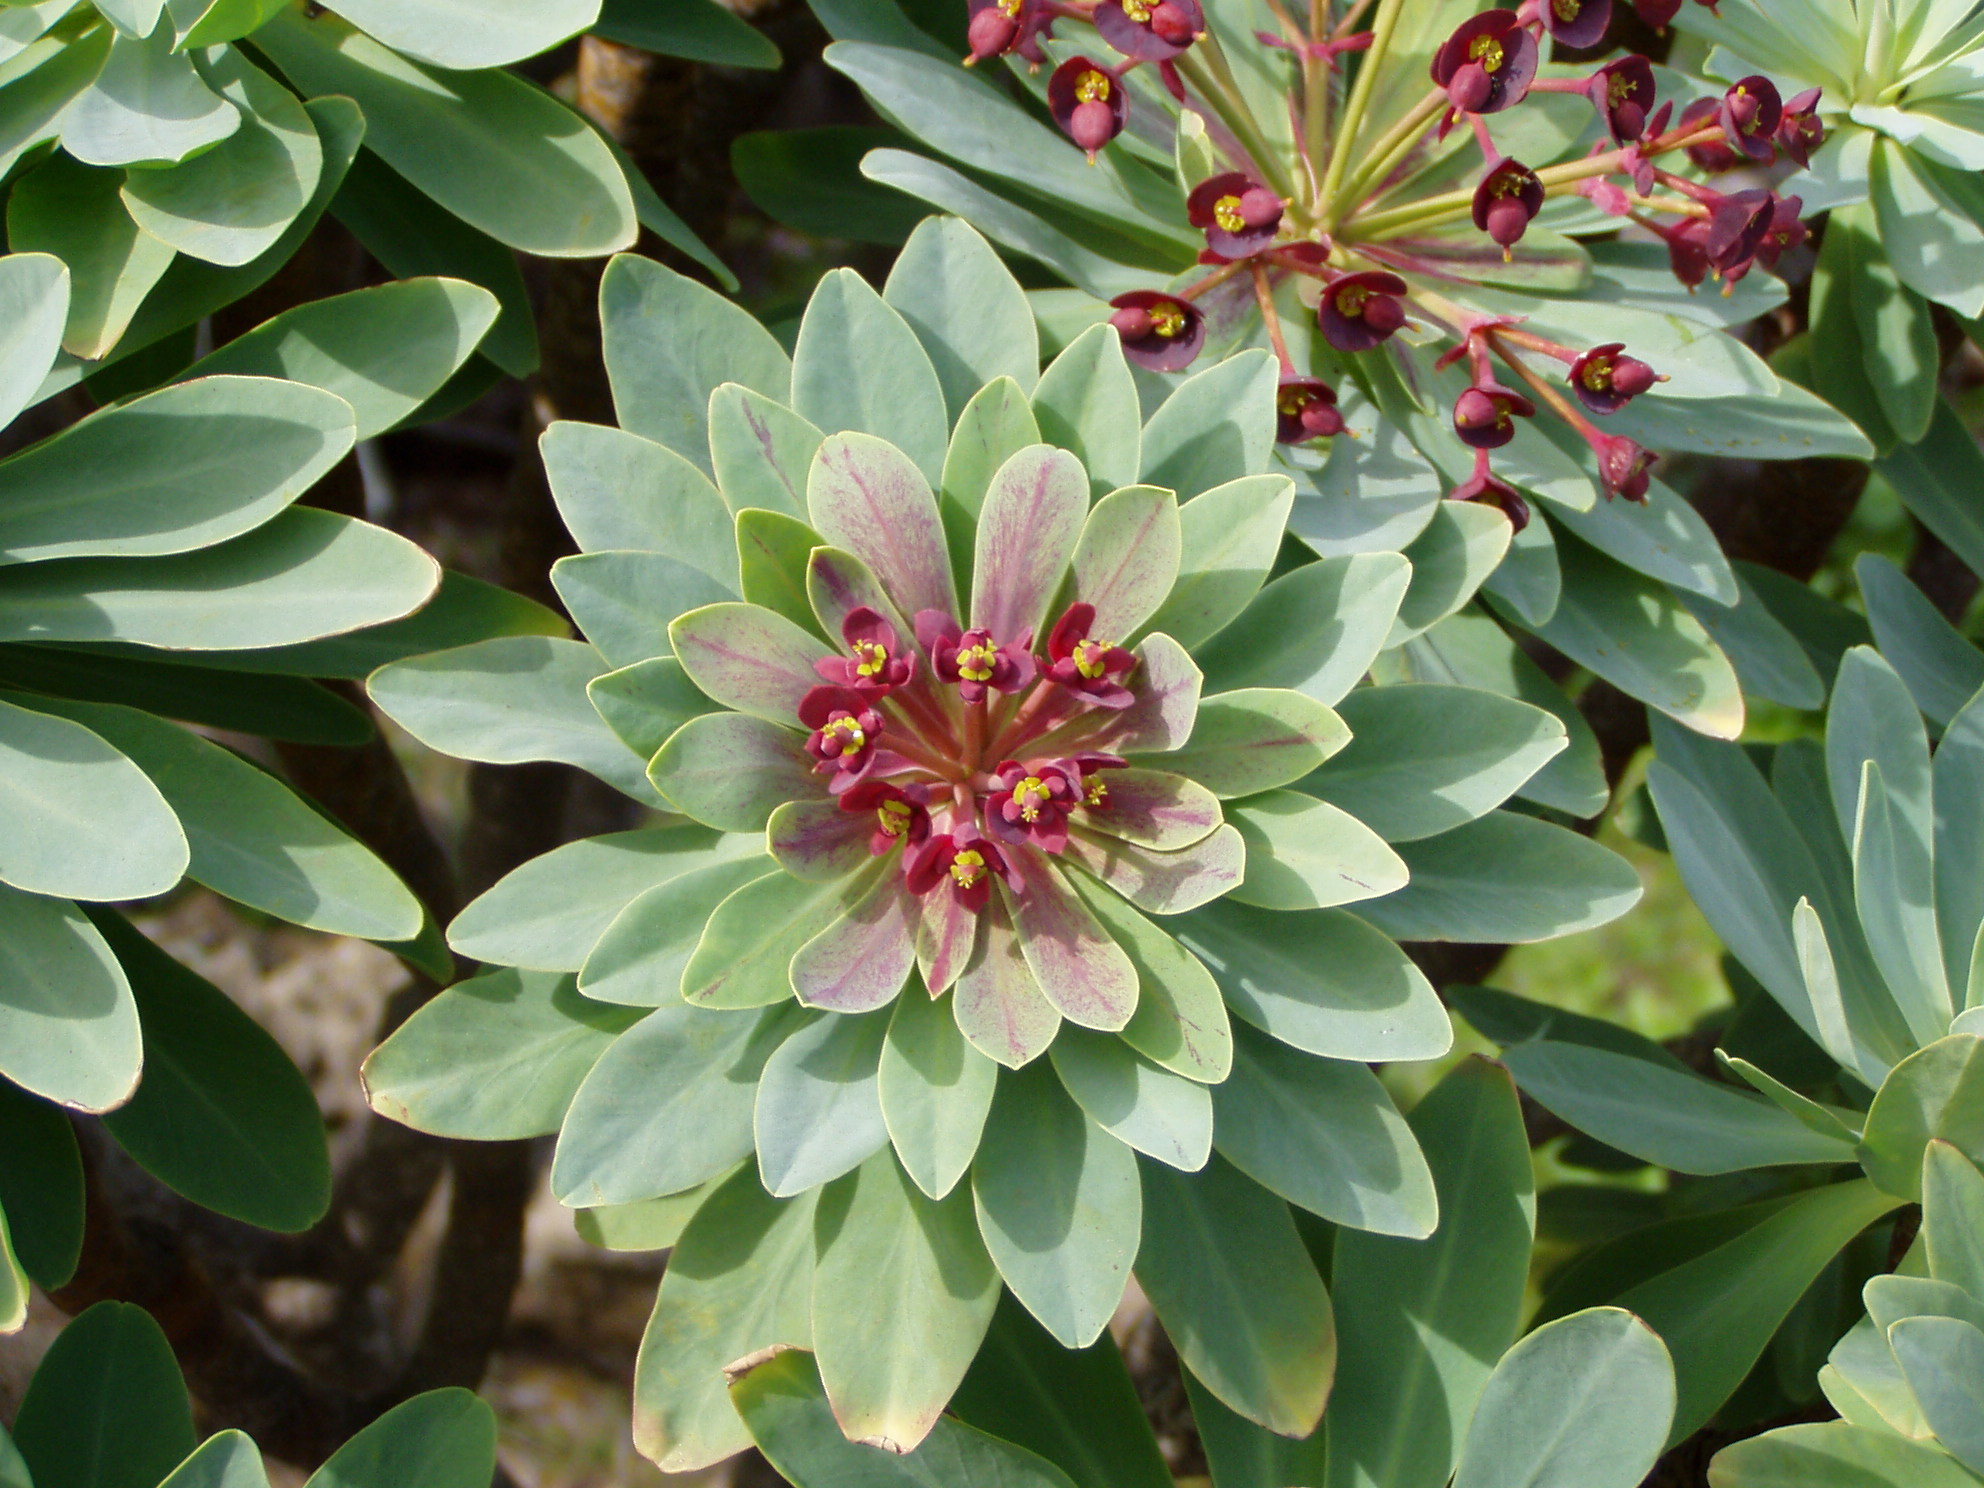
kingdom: Plantae
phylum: Tracheophyta
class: Magnoliopsida
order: Malpighiales
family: Euphorbiaceae
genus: Euphorbia
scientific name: Euphorbia atropurpurea
